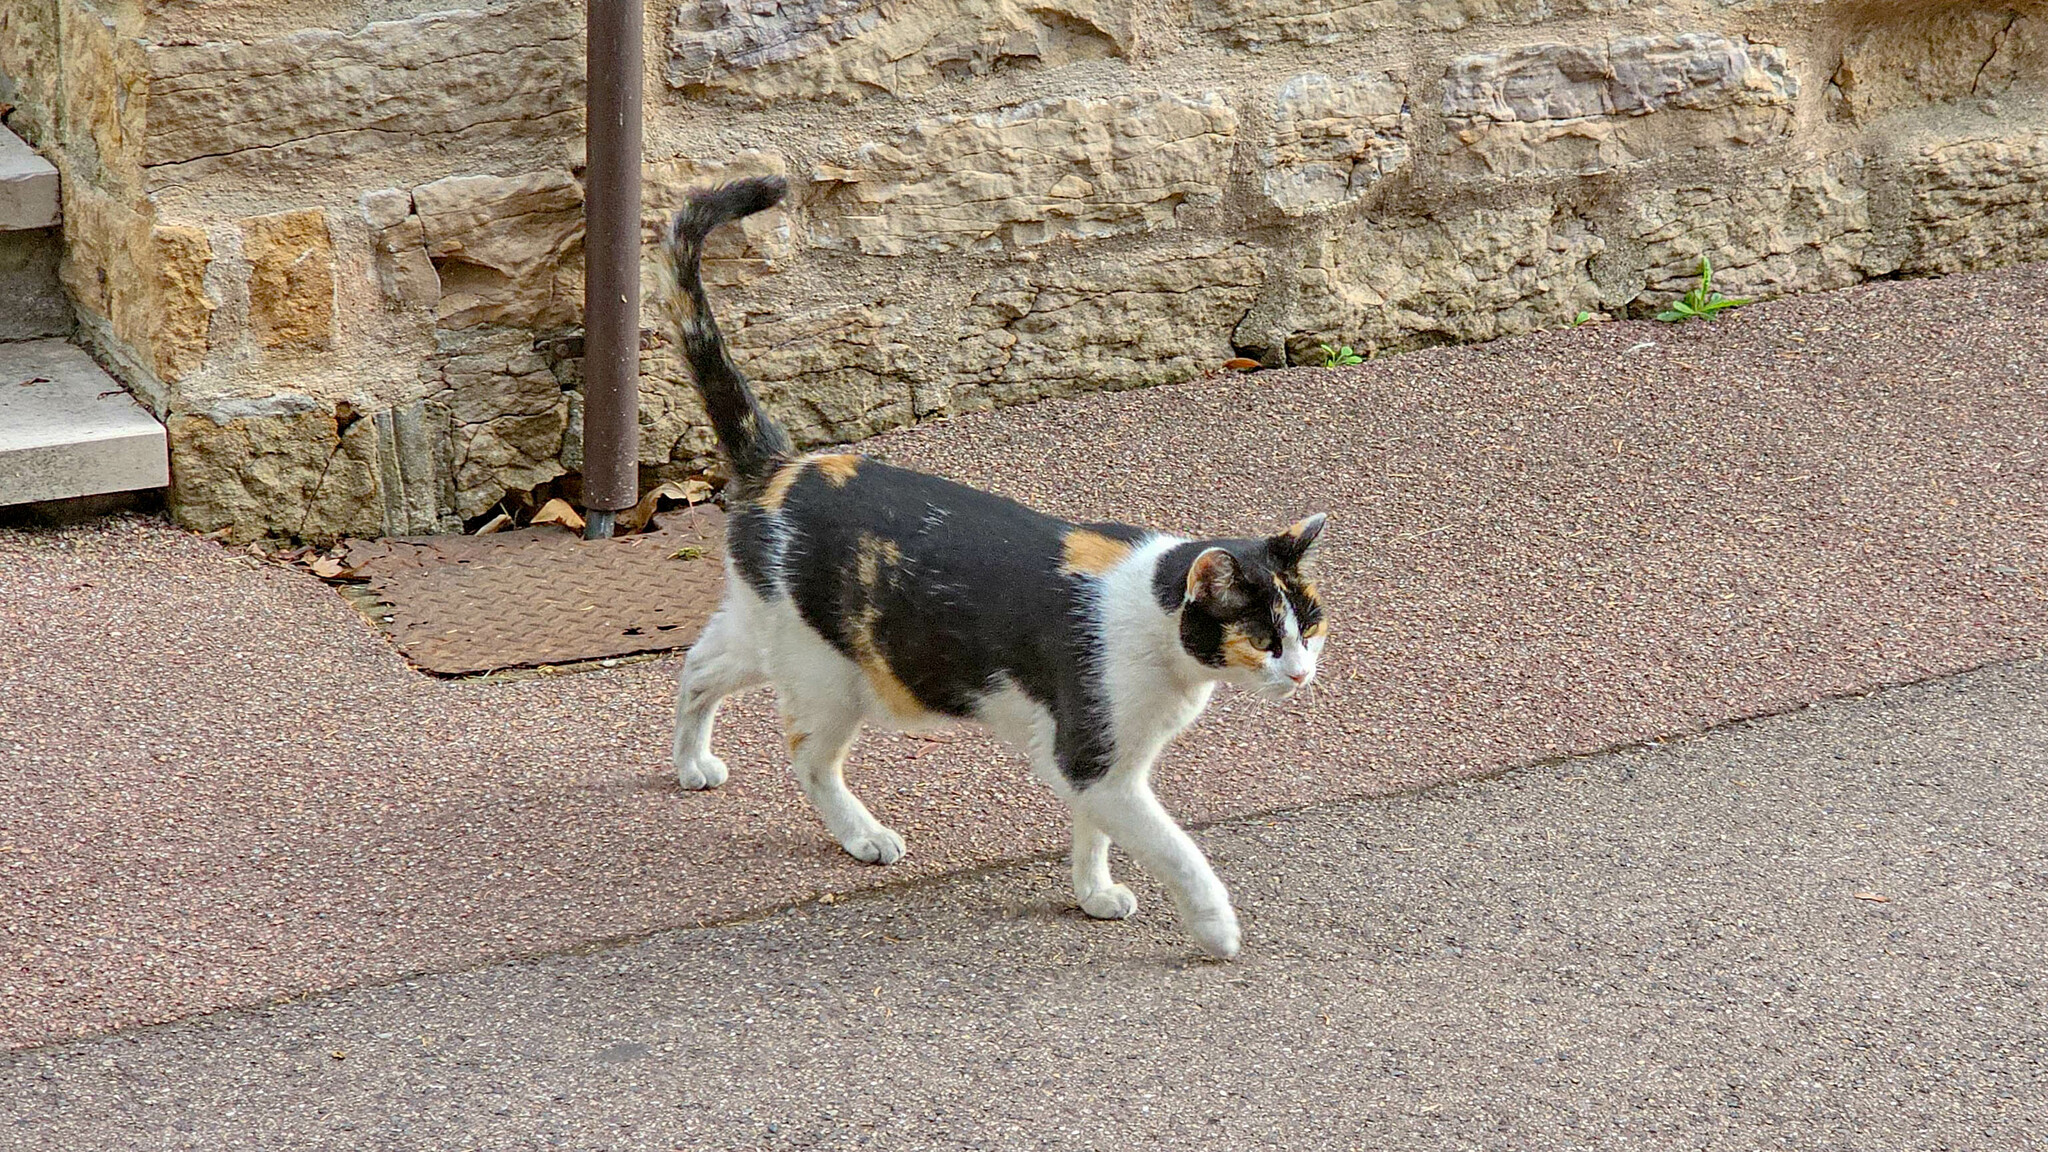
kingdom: Animalia
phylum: Chordata
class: Mammalia
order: Carnivora
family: Felidae
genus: Felis
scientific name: Felis catus
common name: Domestic cat
